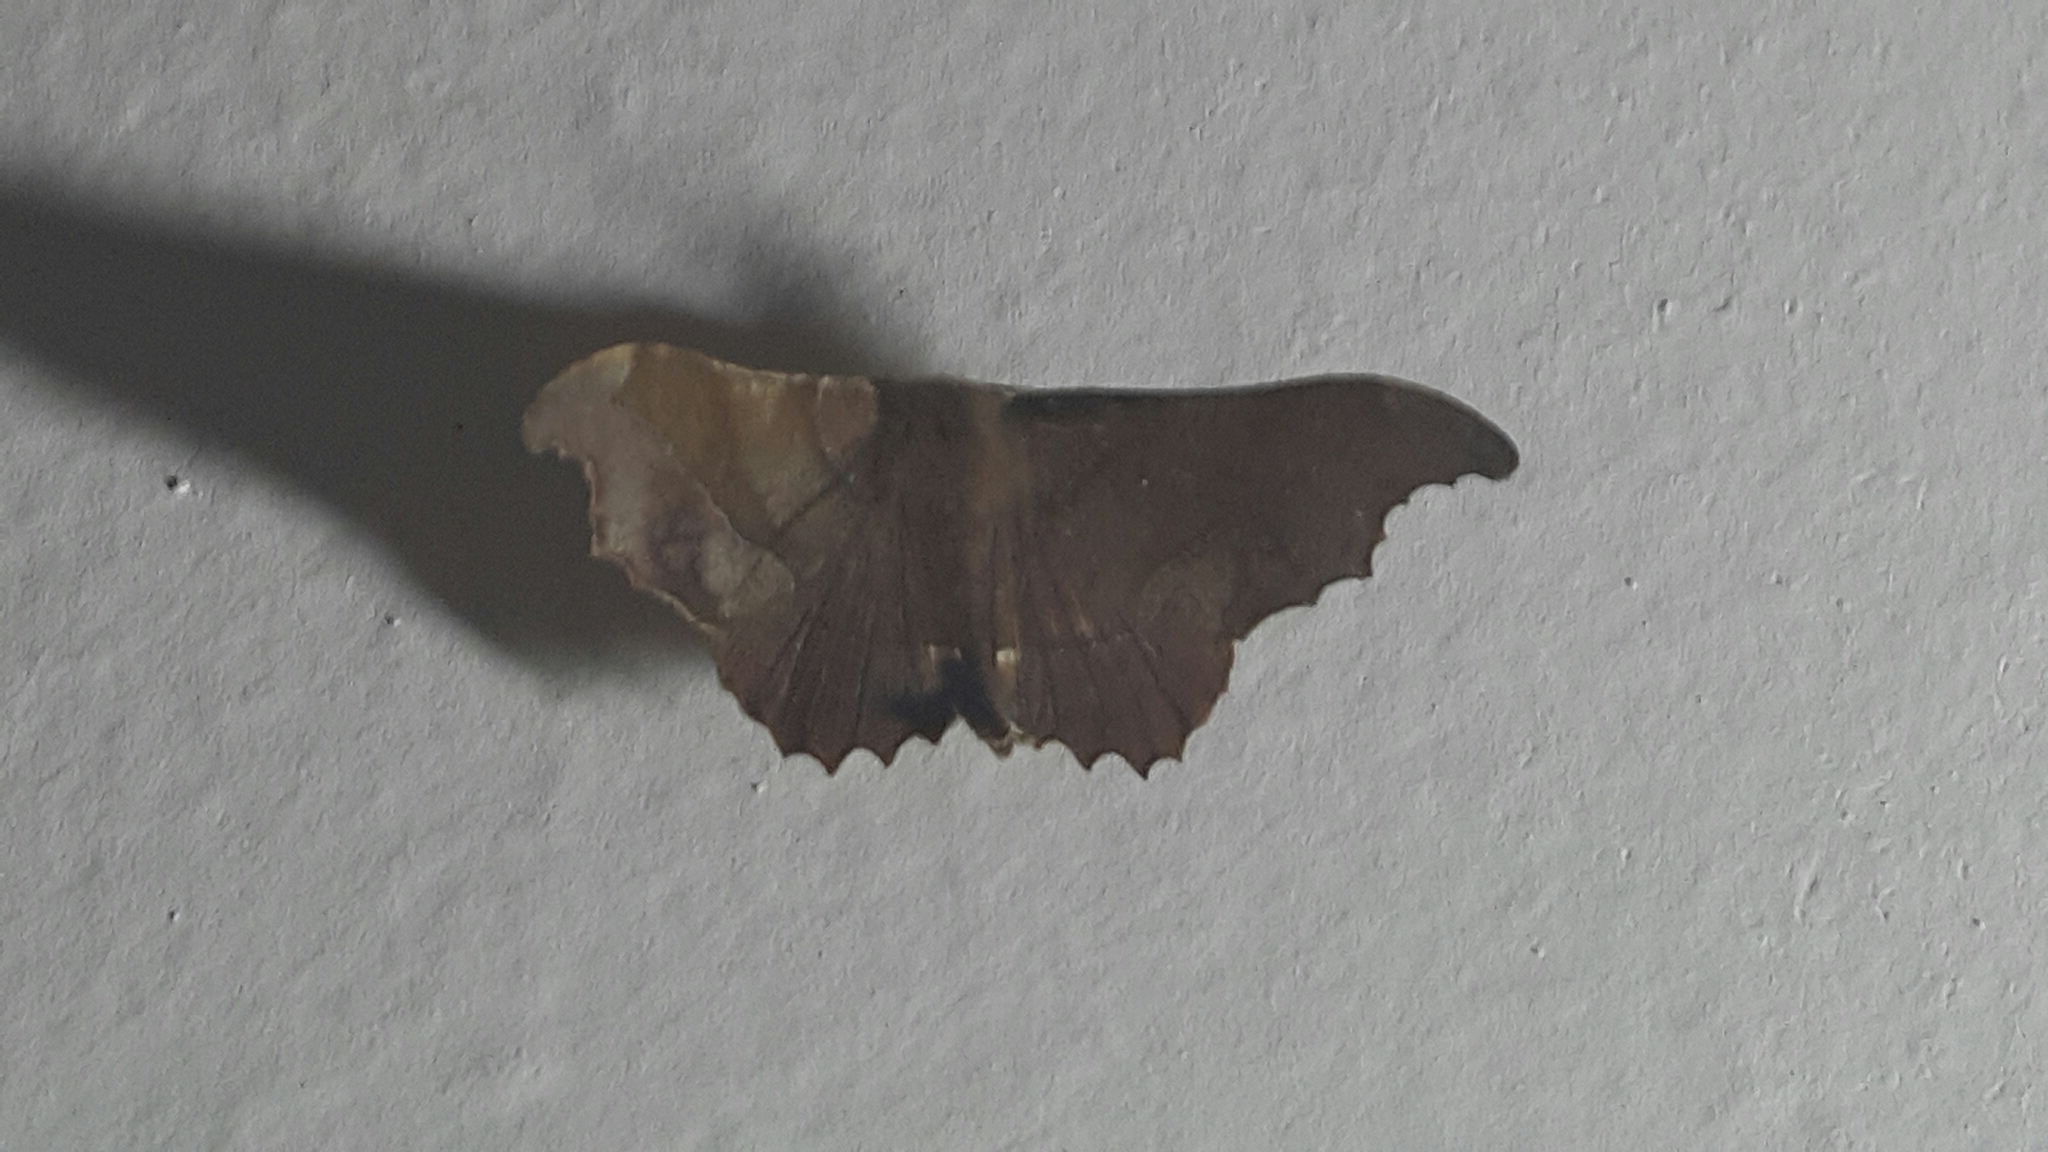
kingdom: Animalia
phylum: Arthropoda
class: Insecta
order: Lepidoptera
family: Geometridae
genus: Patalene
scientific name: Patalene aenetusaria
